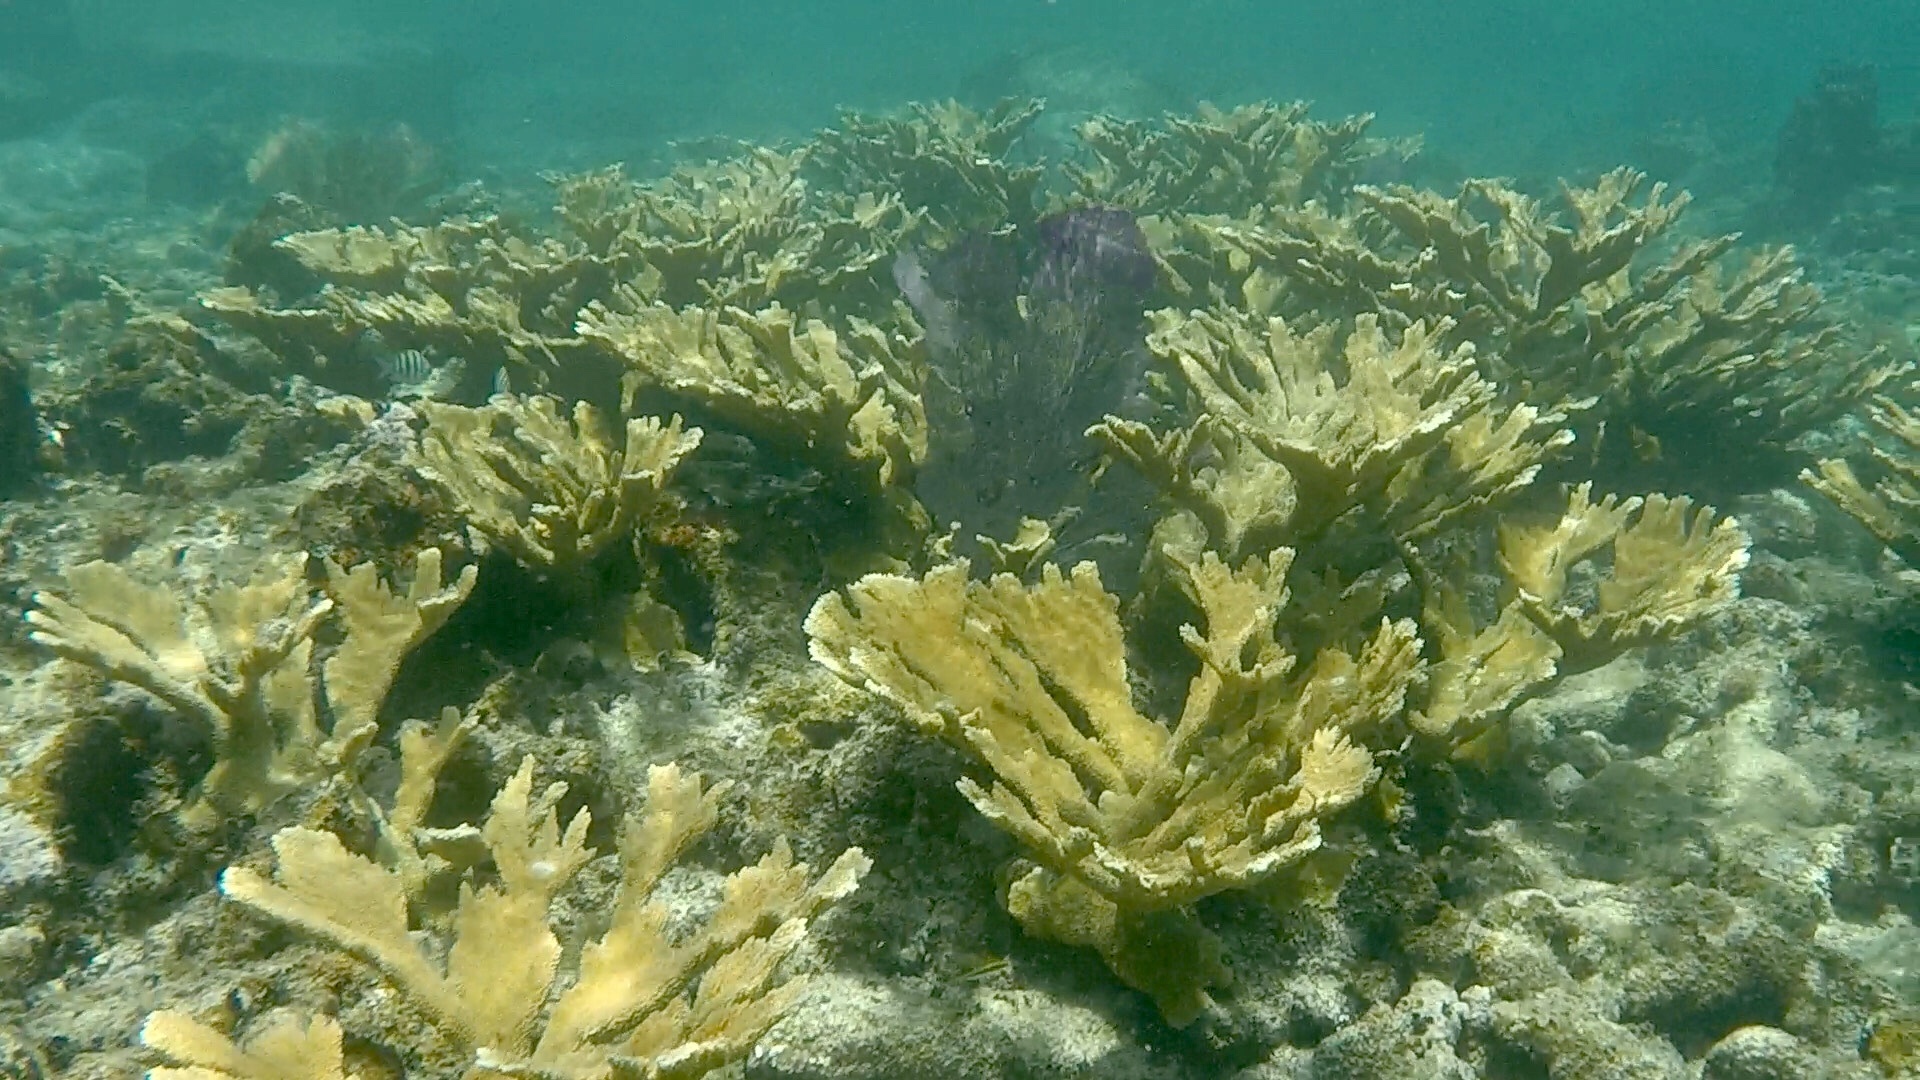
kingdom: Animalia
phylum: Cnidaria
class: Anthozoa
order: Scleractinia
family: Acroporidae
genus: Acropora
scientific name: Acropora palmata
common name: Elkhorn coral
